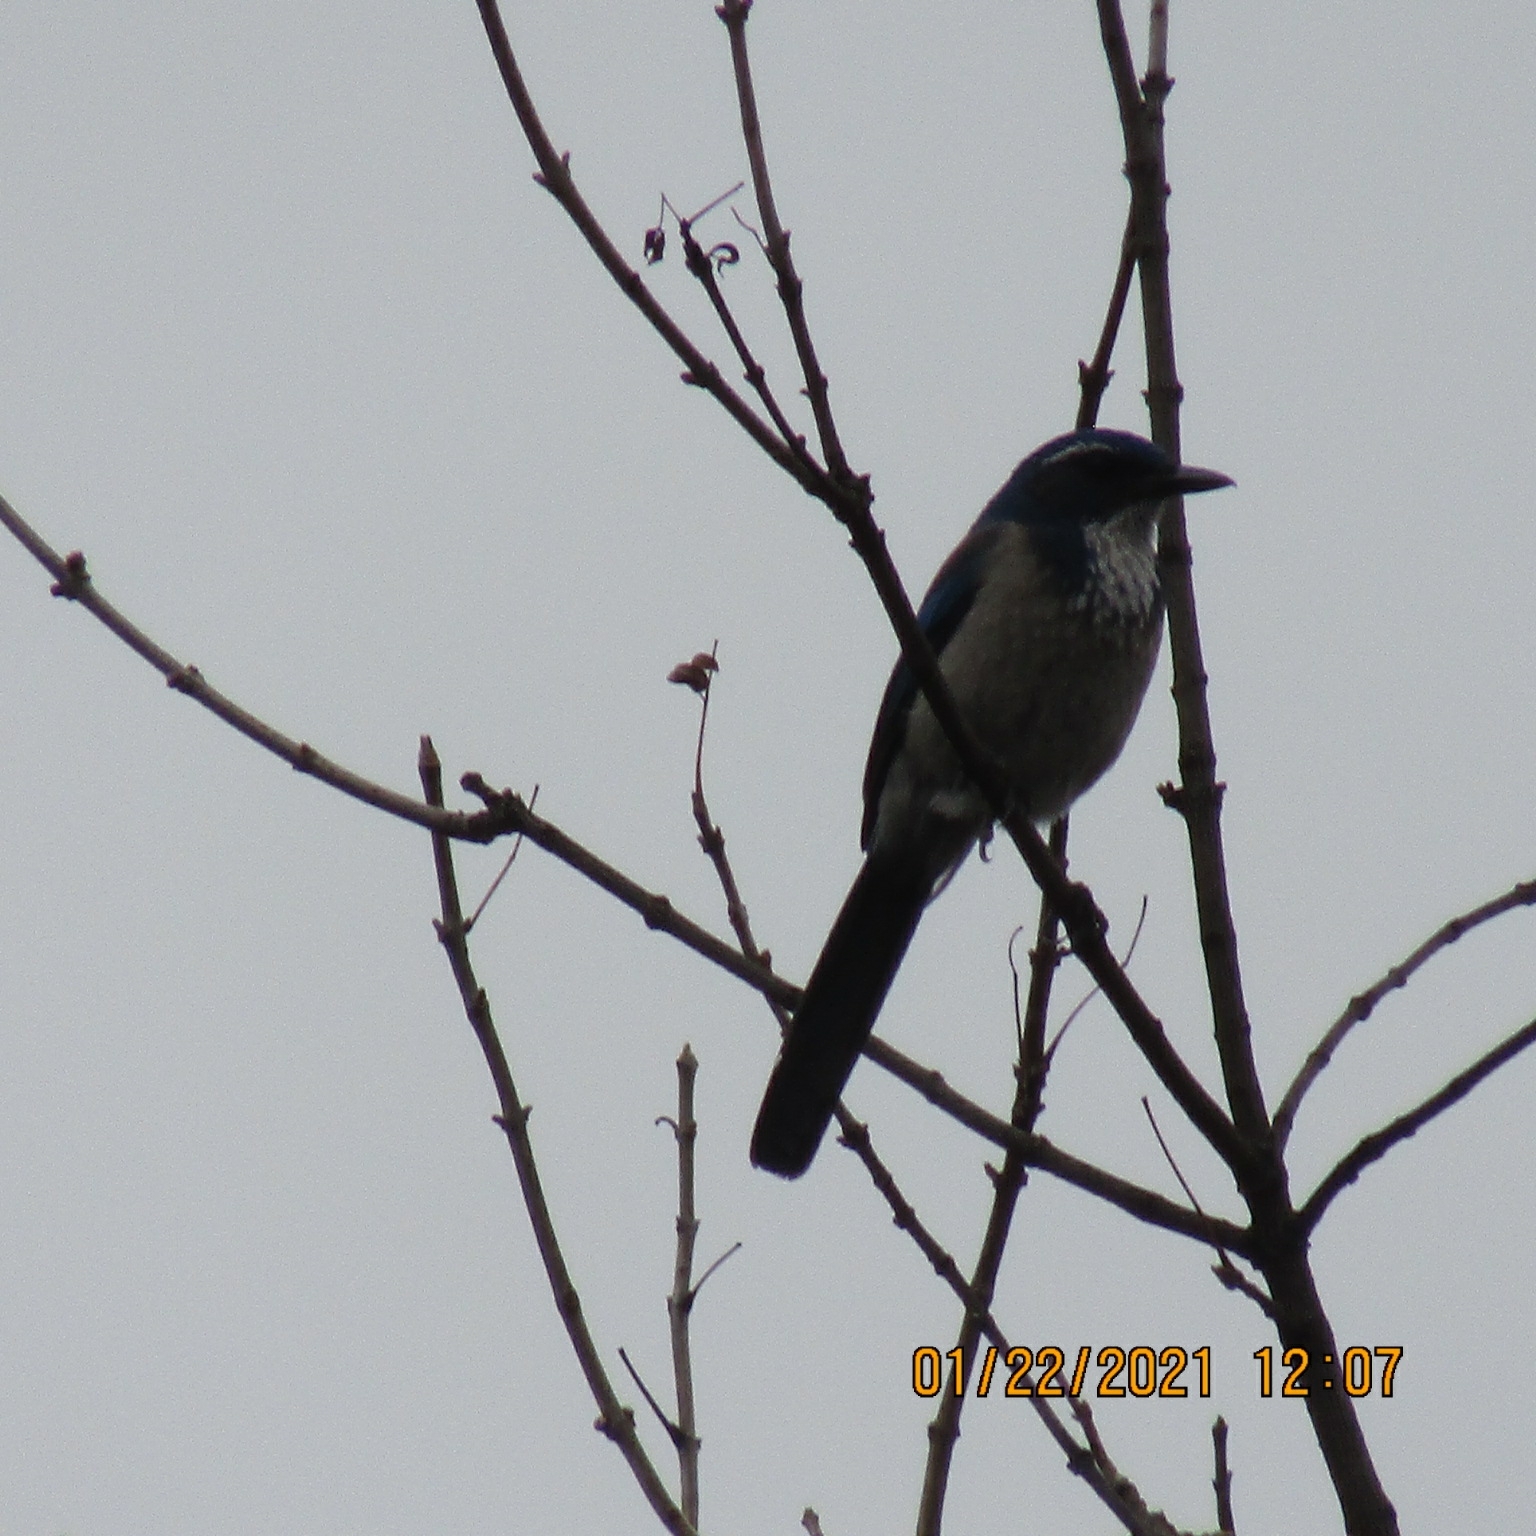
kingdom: Animalia
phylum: Chordata
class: Aves
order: Passeriformes
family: Corvidae
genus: Aphelocoma
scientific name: Aphelocoma californica
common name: California scrub-jay
